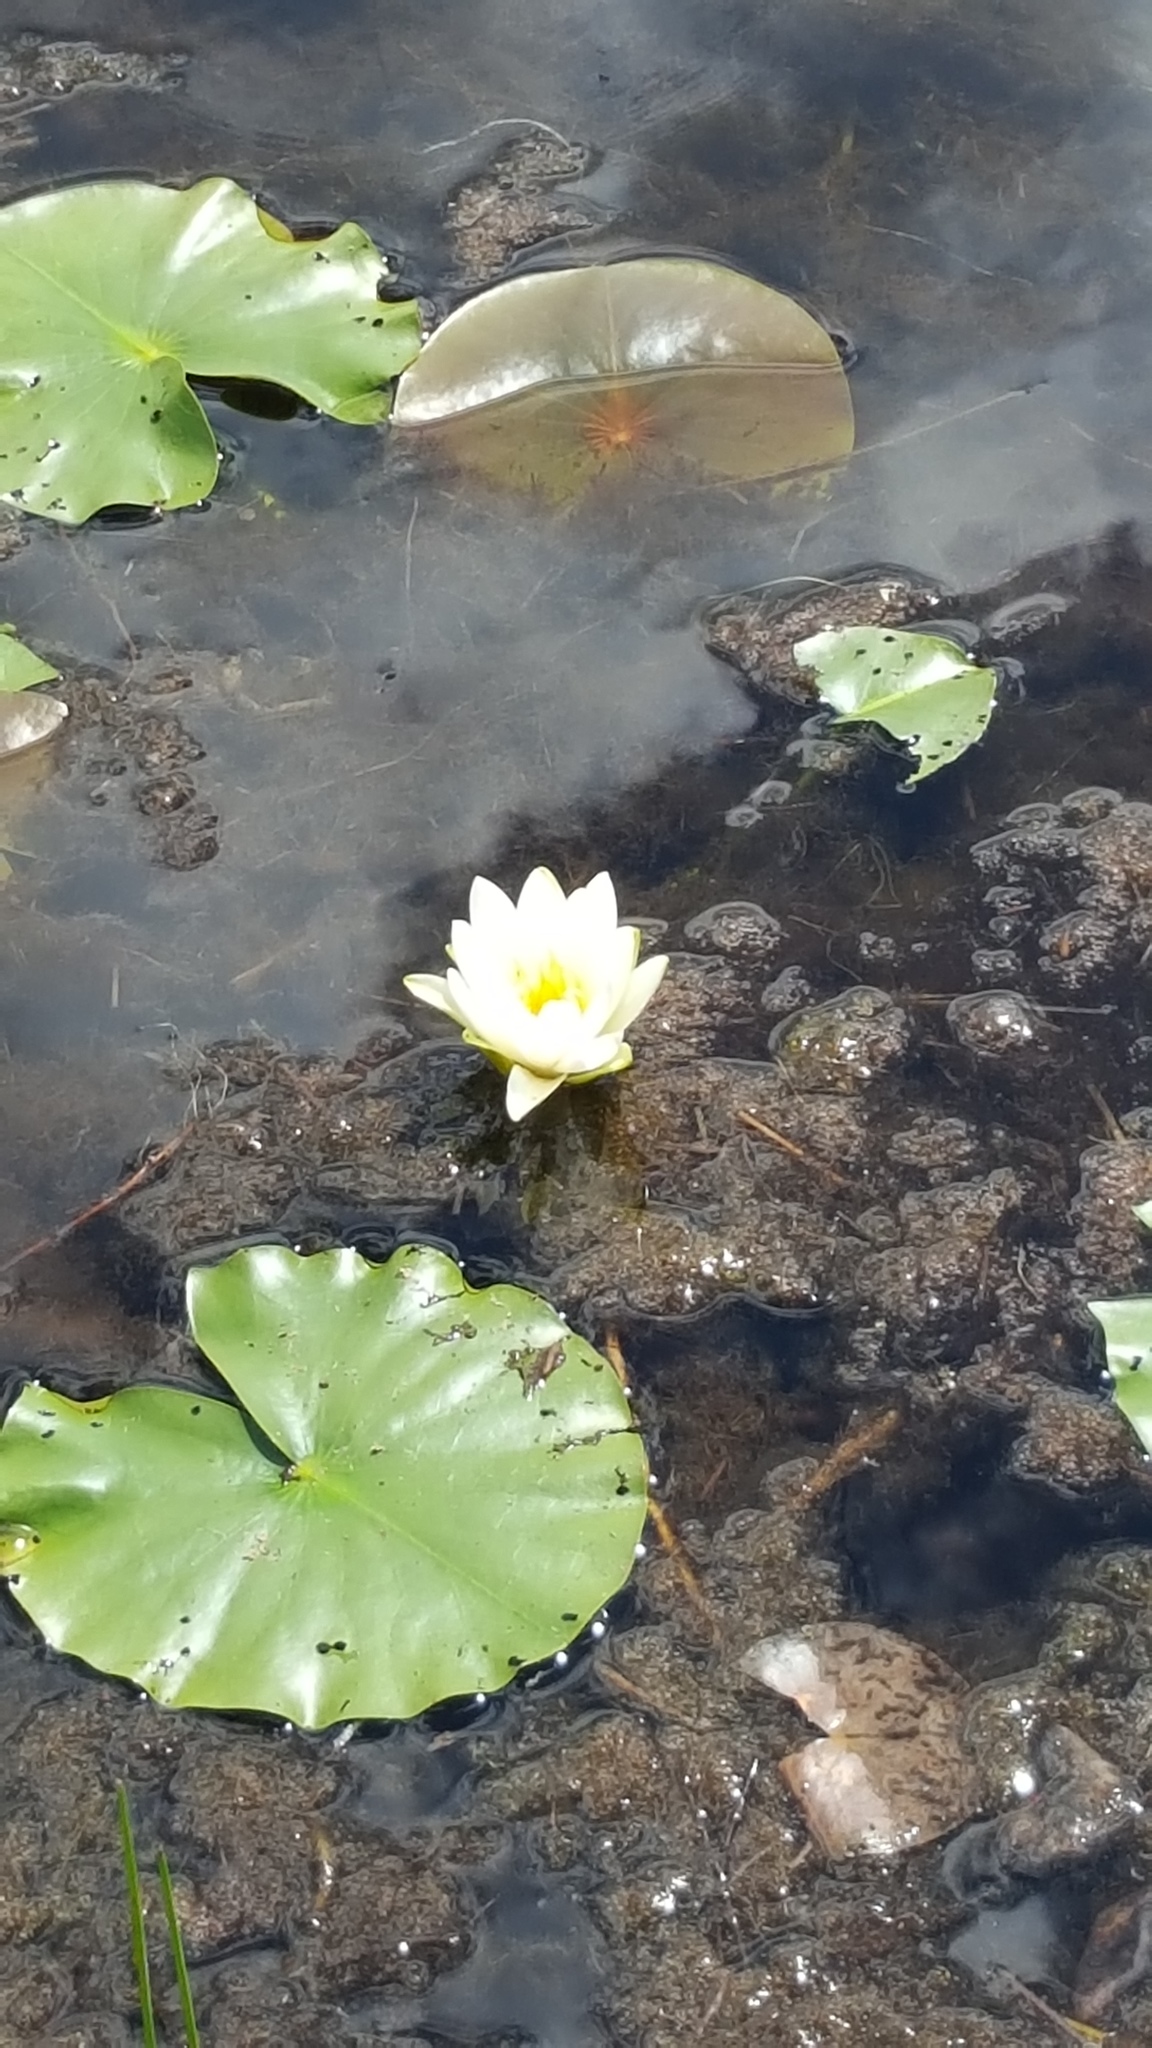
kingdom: Plantae
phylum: Tracheophyta
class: Magnoliopsida
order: Nymphaeales
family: Nymphaeaceae
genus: Nymphaea
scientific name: Nymphaea odorata
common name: Fragrant water-lily
